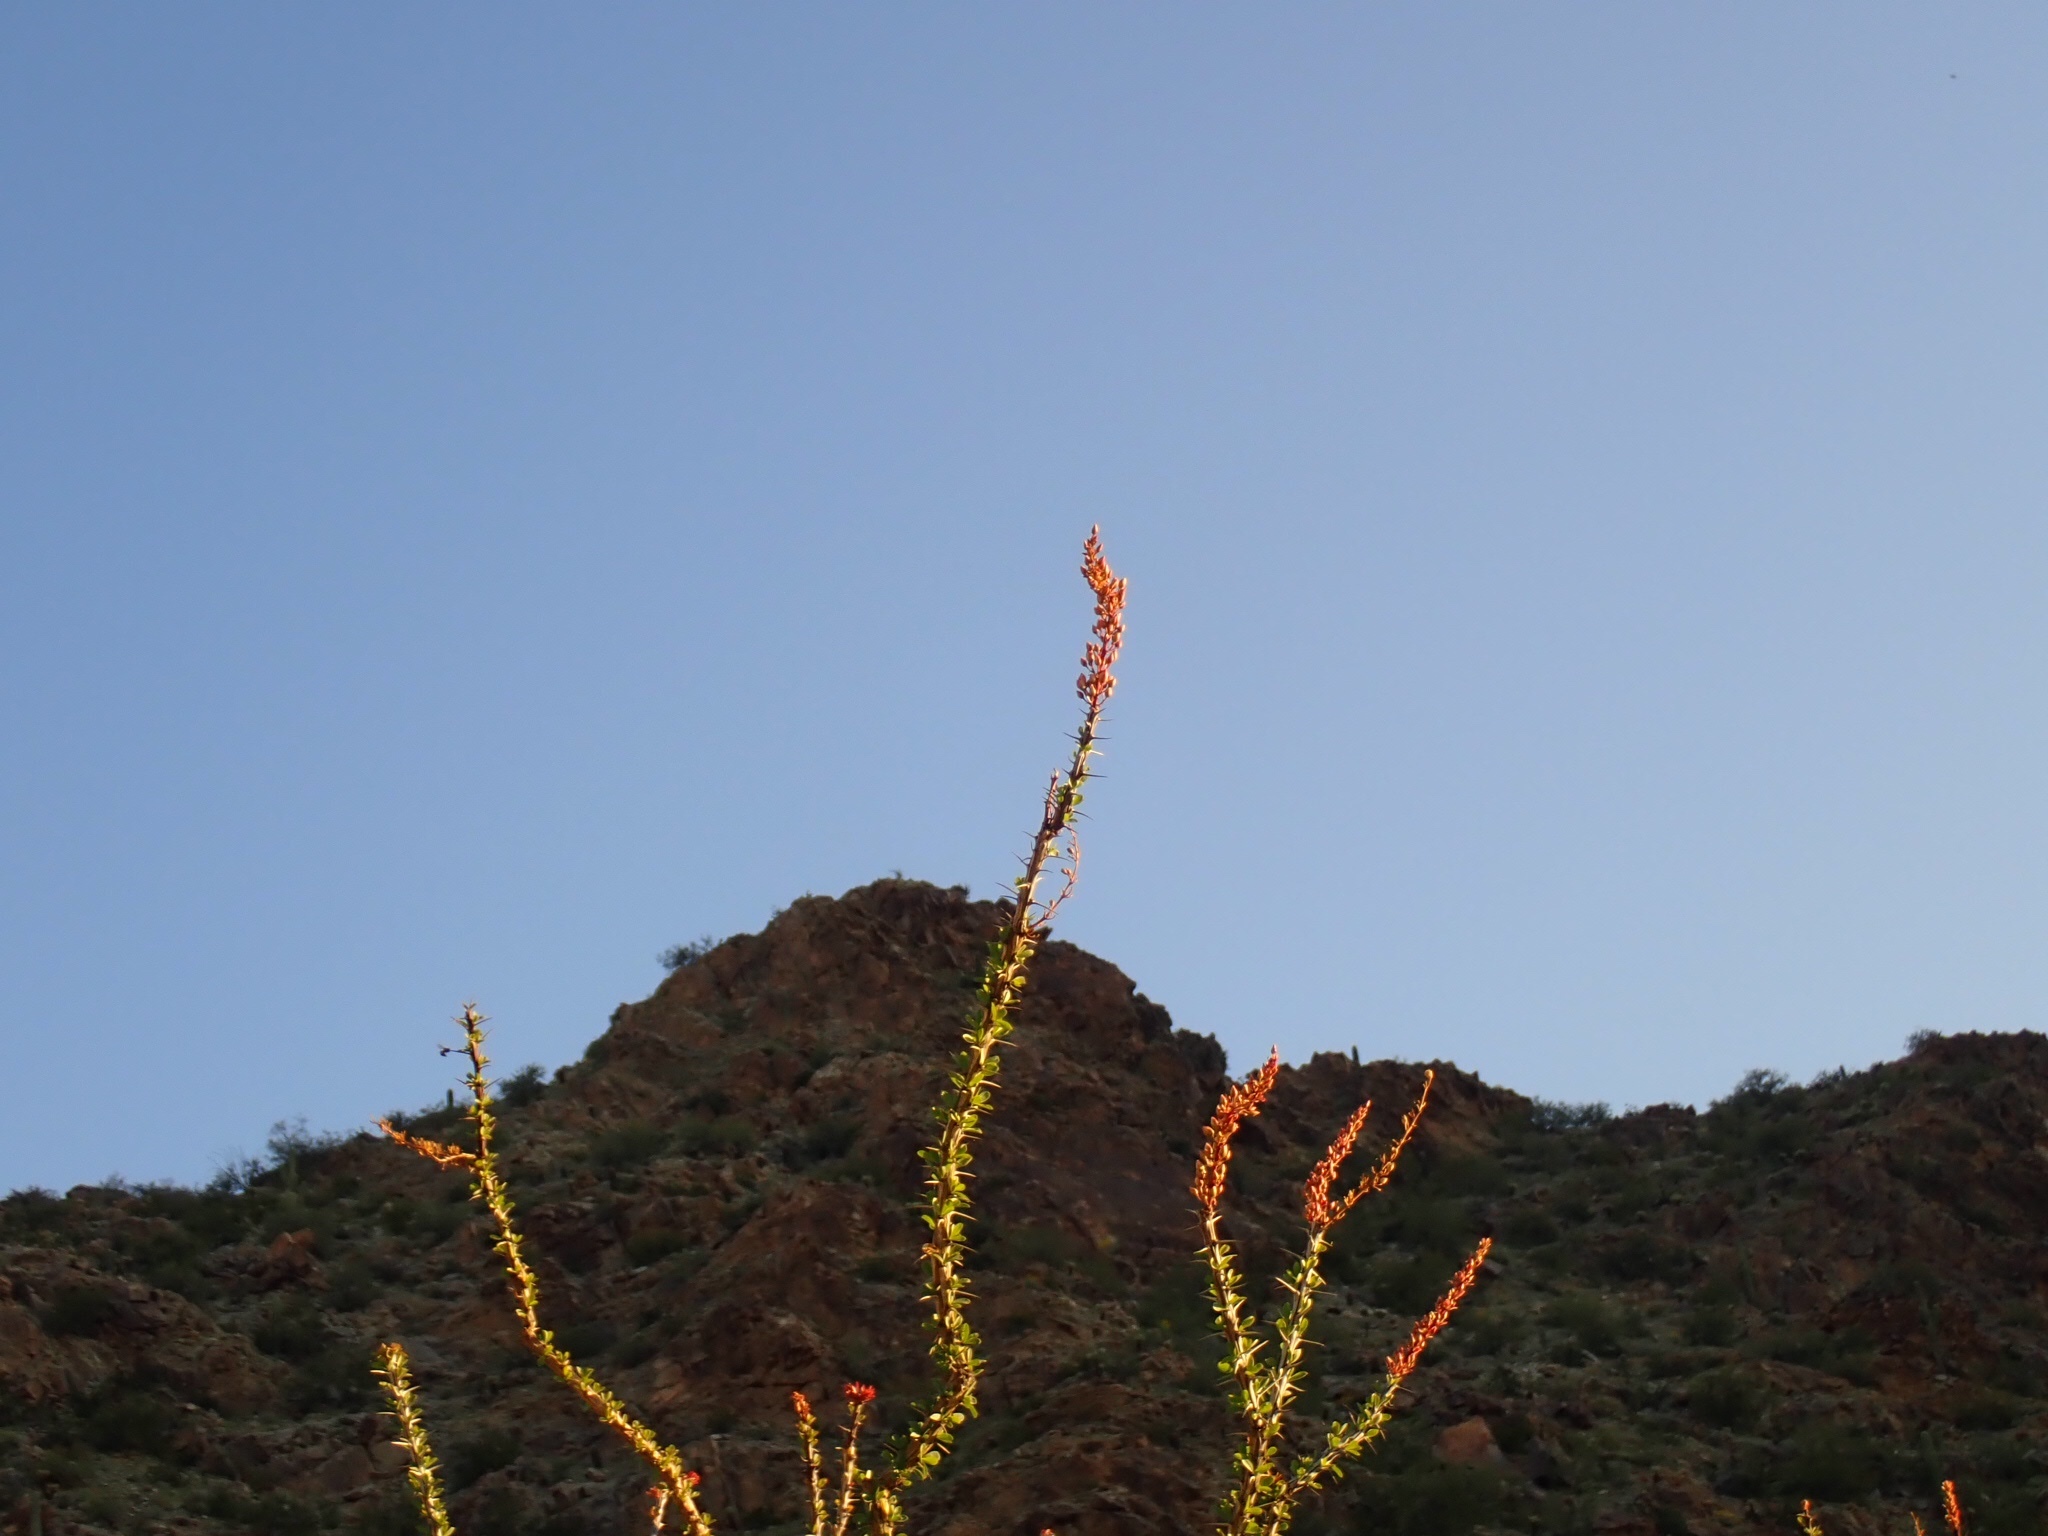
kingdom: Plantae
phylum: Tracheophyta
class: Magnoliopsida
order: Ericales
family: Fouquieriaceae
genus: Fouquieria
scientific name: Fouquieria splendens
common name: Vine-cactus
